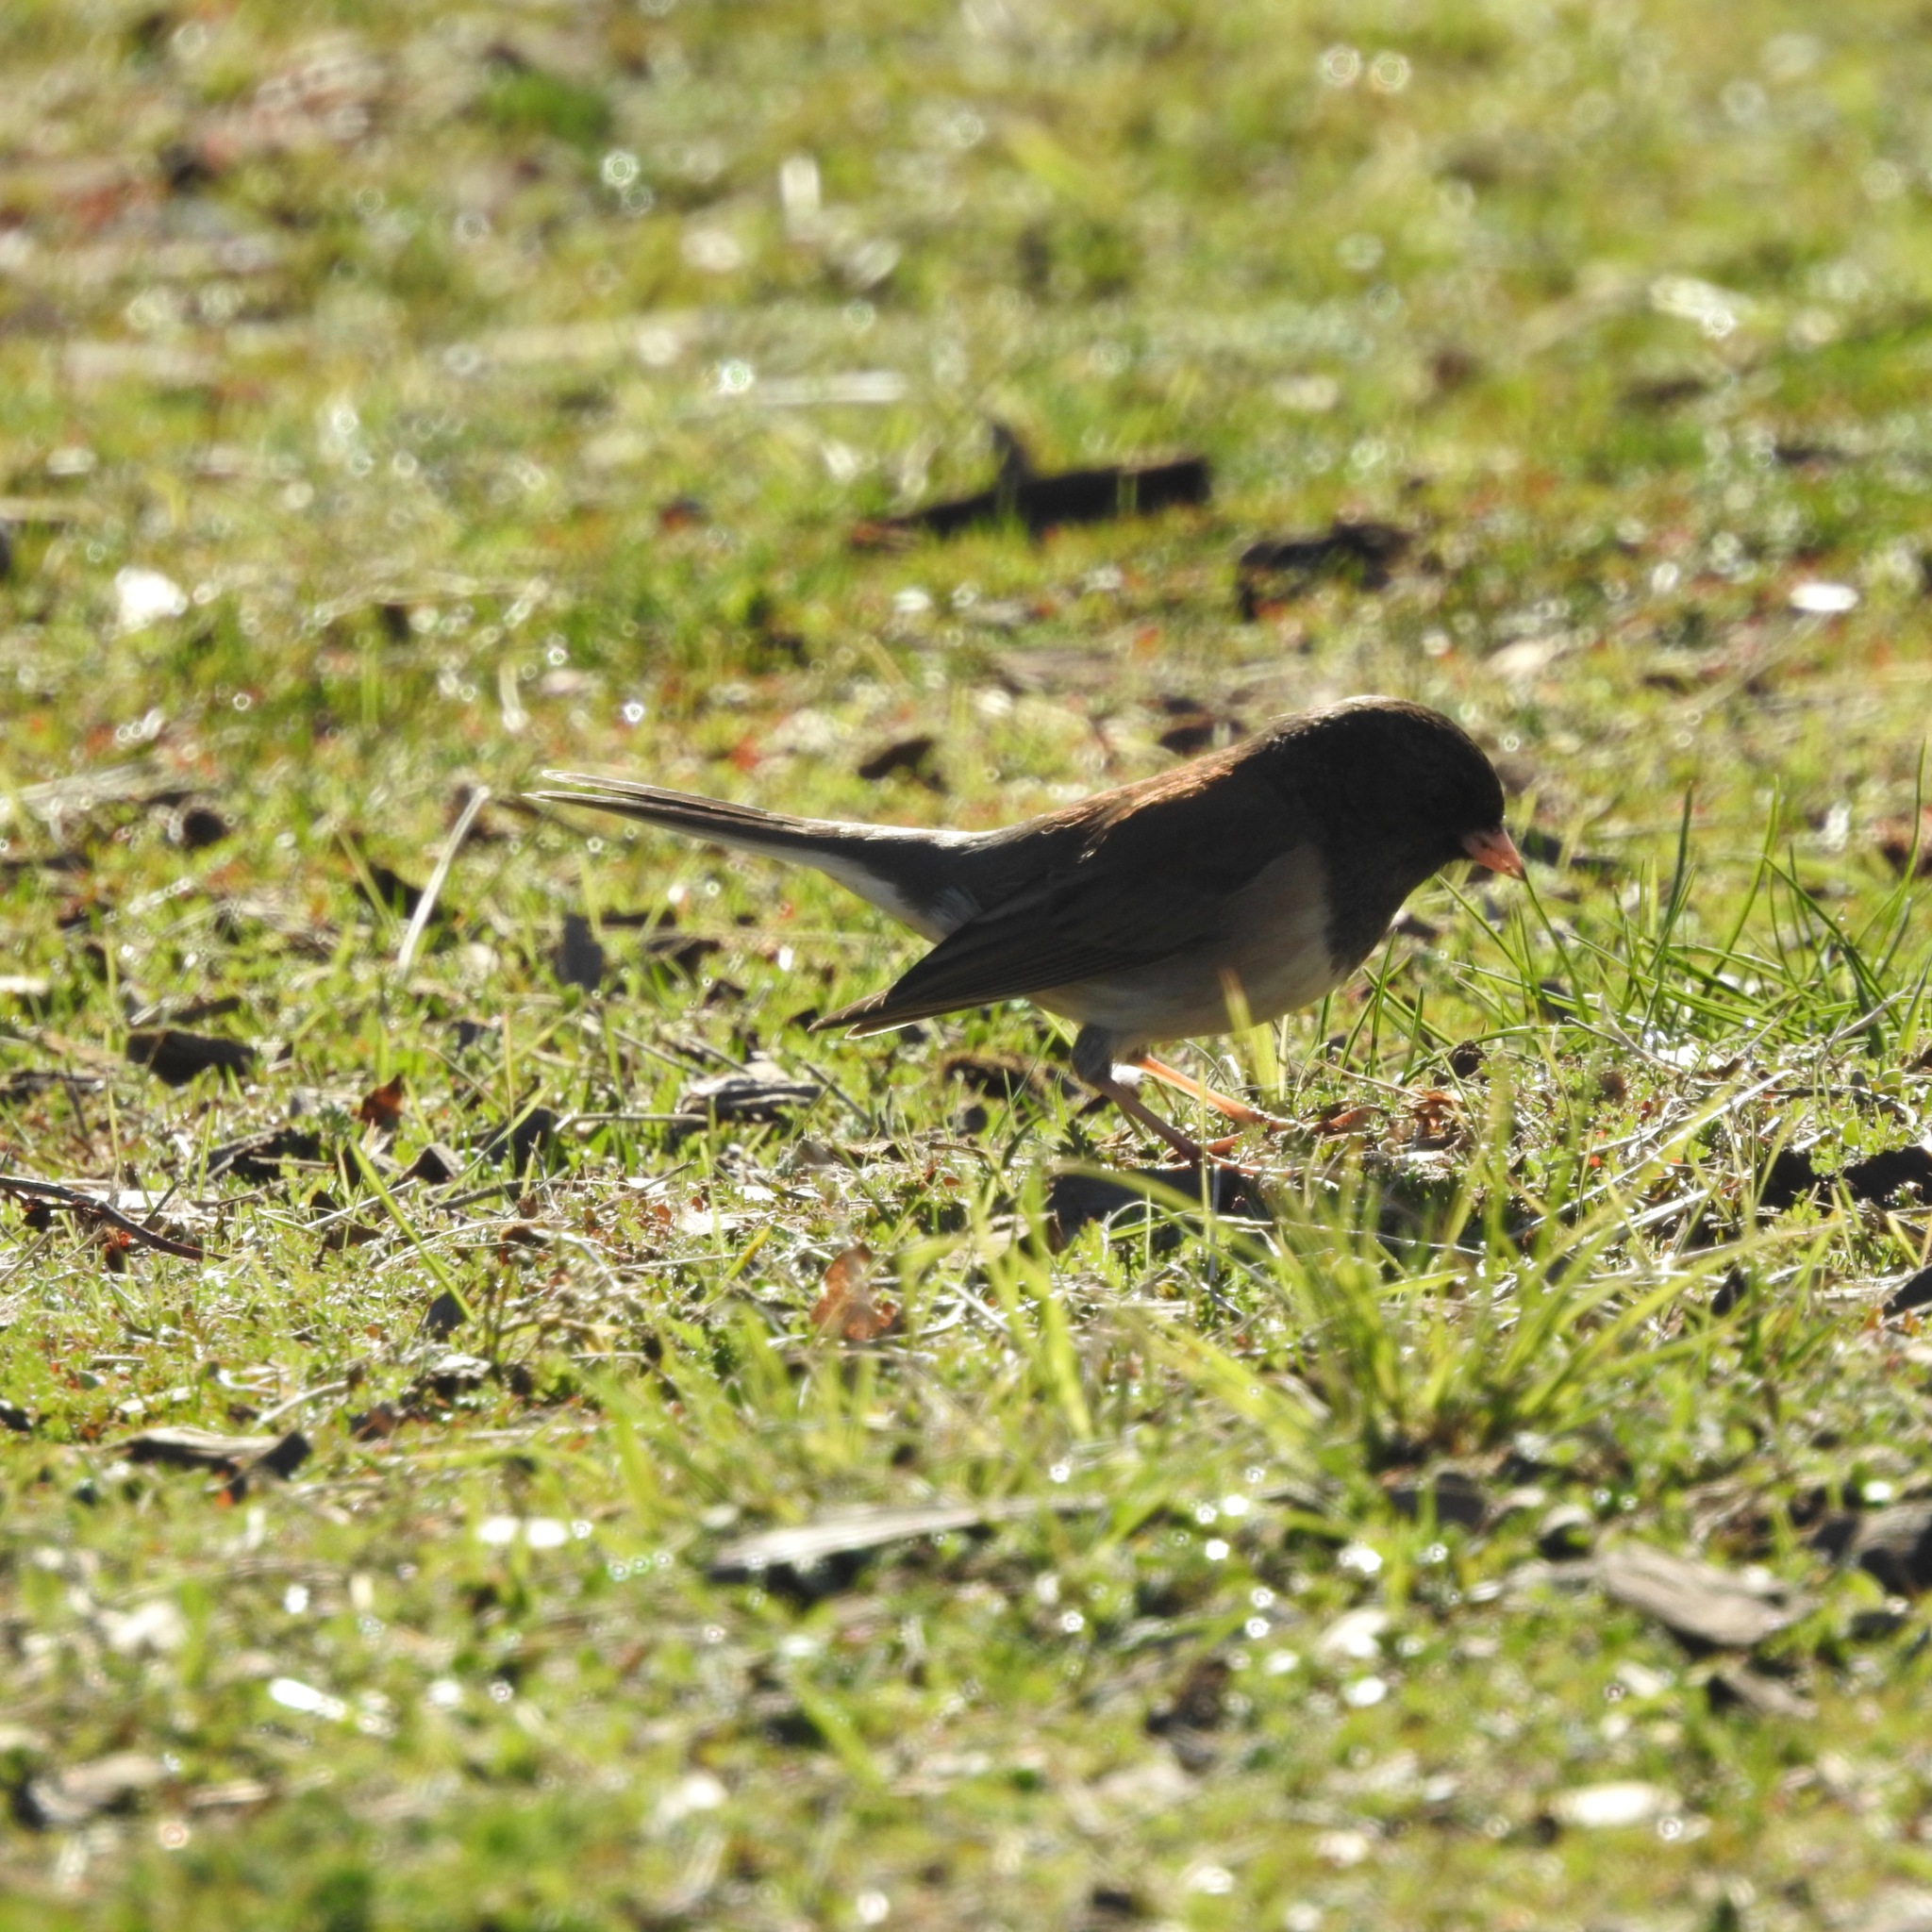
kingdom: Animalia
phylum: Chordata
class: Aves
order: Passeriformes
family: Passerellidae
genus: Junco
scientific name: Junco hyemalis
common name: Dark-eyed junco
